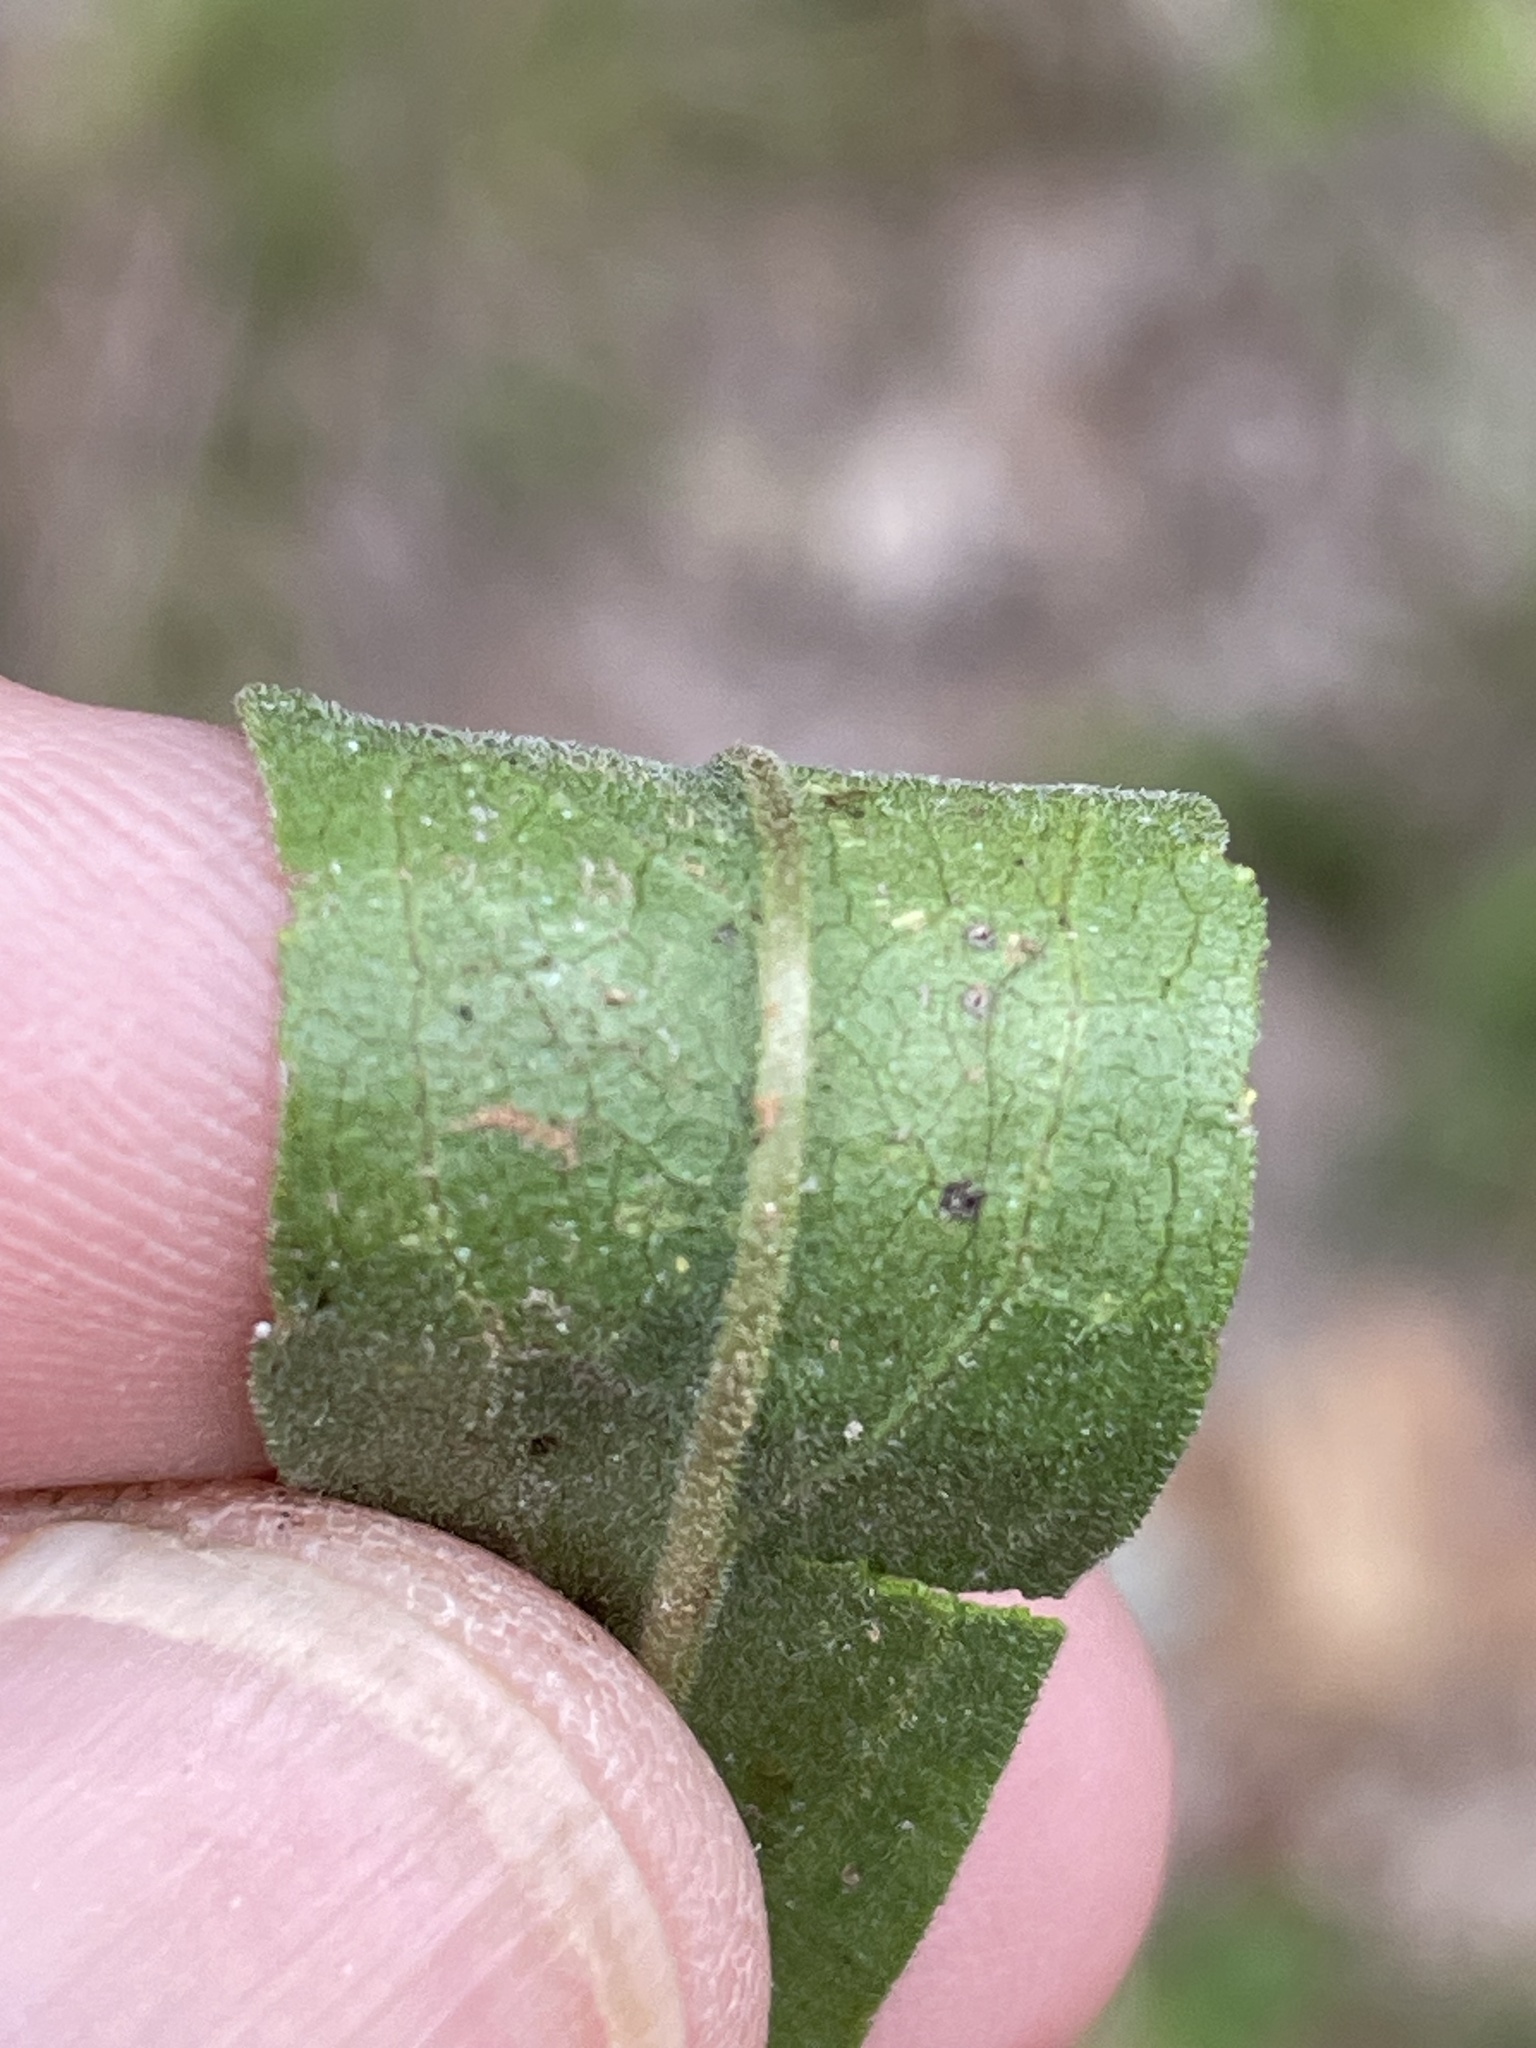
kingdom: Plantae
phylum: Tracheophyta
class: Magnoliopsida
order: Asterales
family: Asteraceae
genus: Solidago
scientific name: Solidago nemoralis
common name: Grey goldenrod
